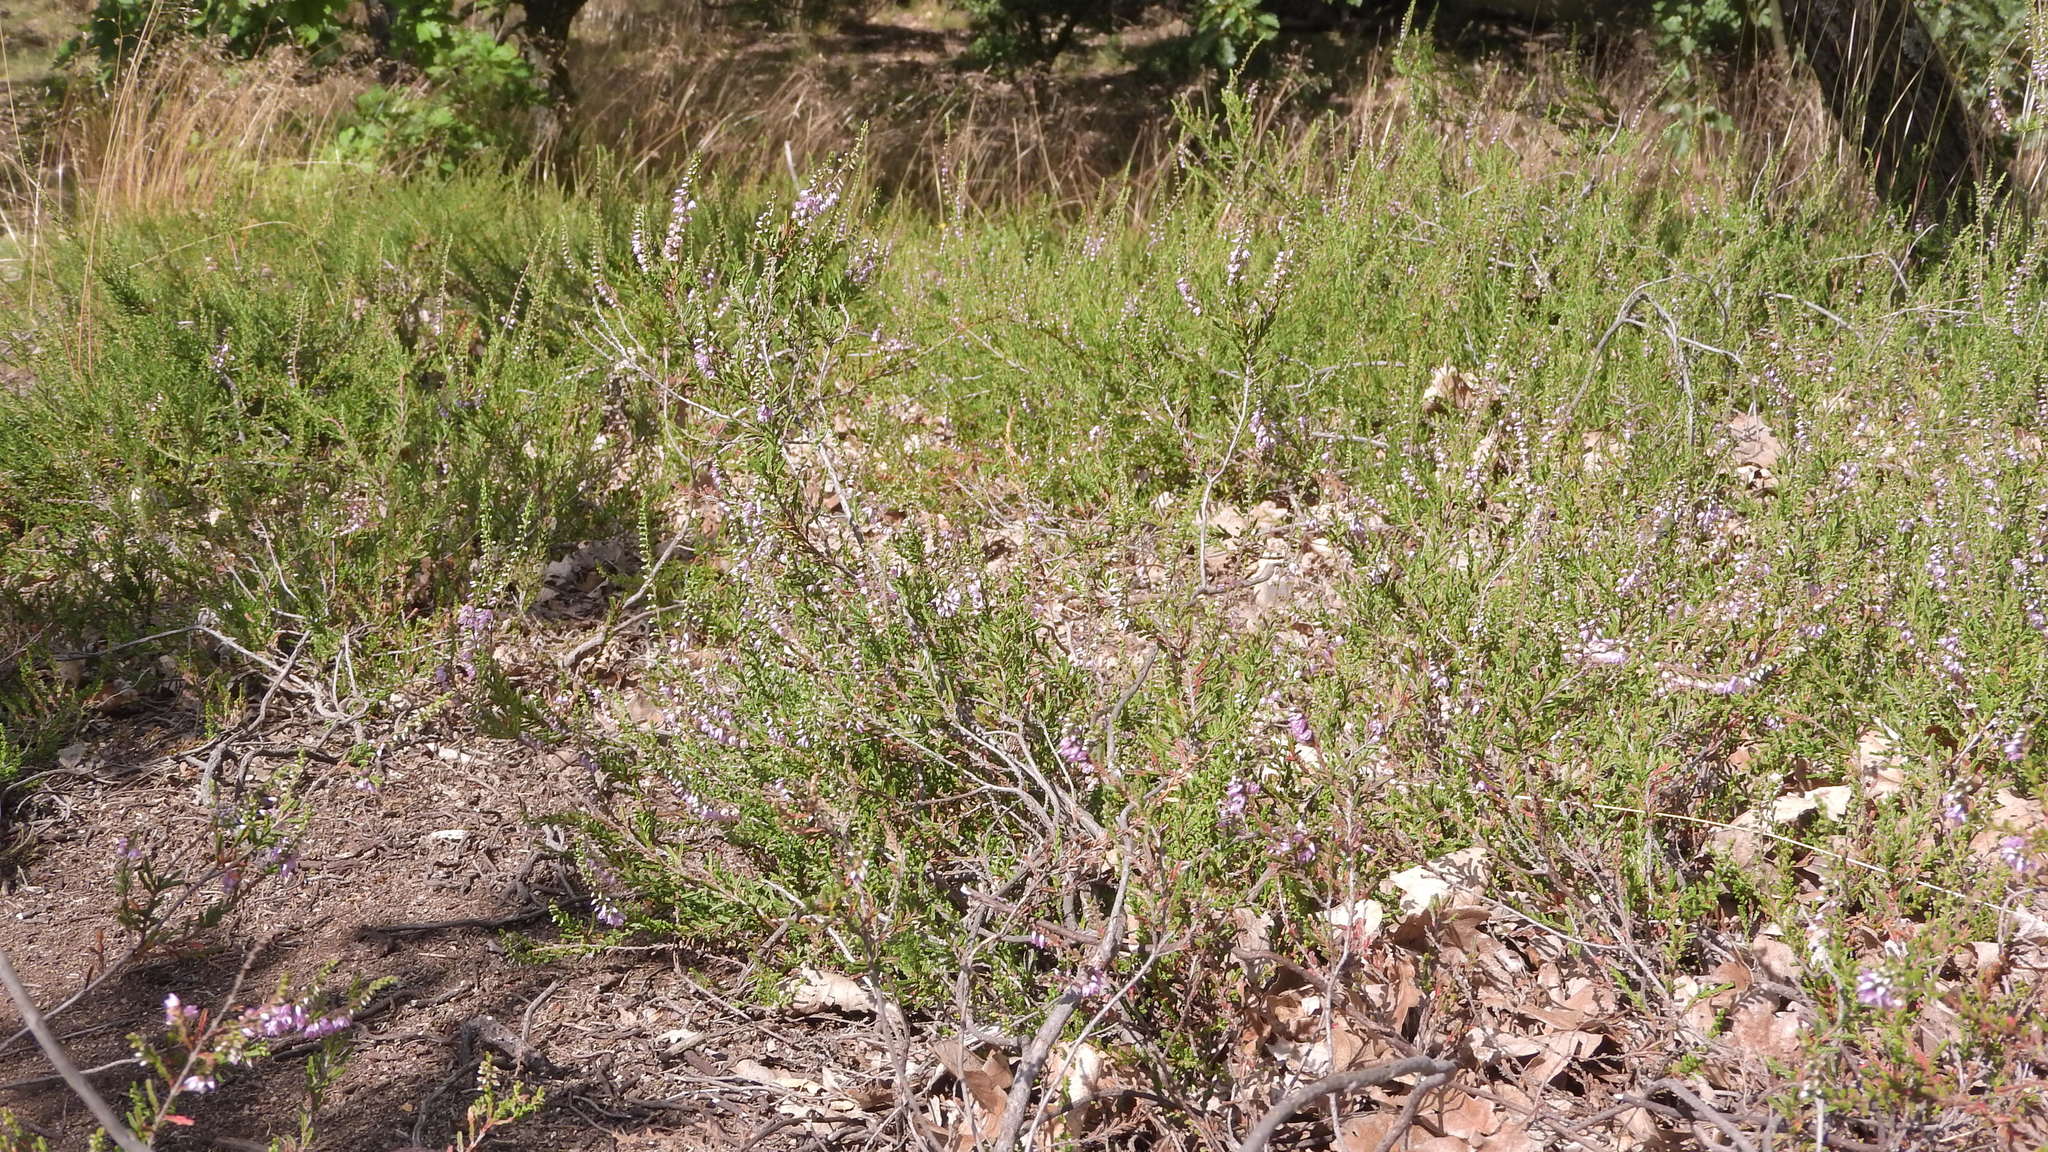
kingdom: Plantae
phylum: Tracheophyta
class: Magnoliopsida
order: Ericales
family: Ericaceae
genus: Calluna
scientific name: Calluna vulgaris
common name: Heather
